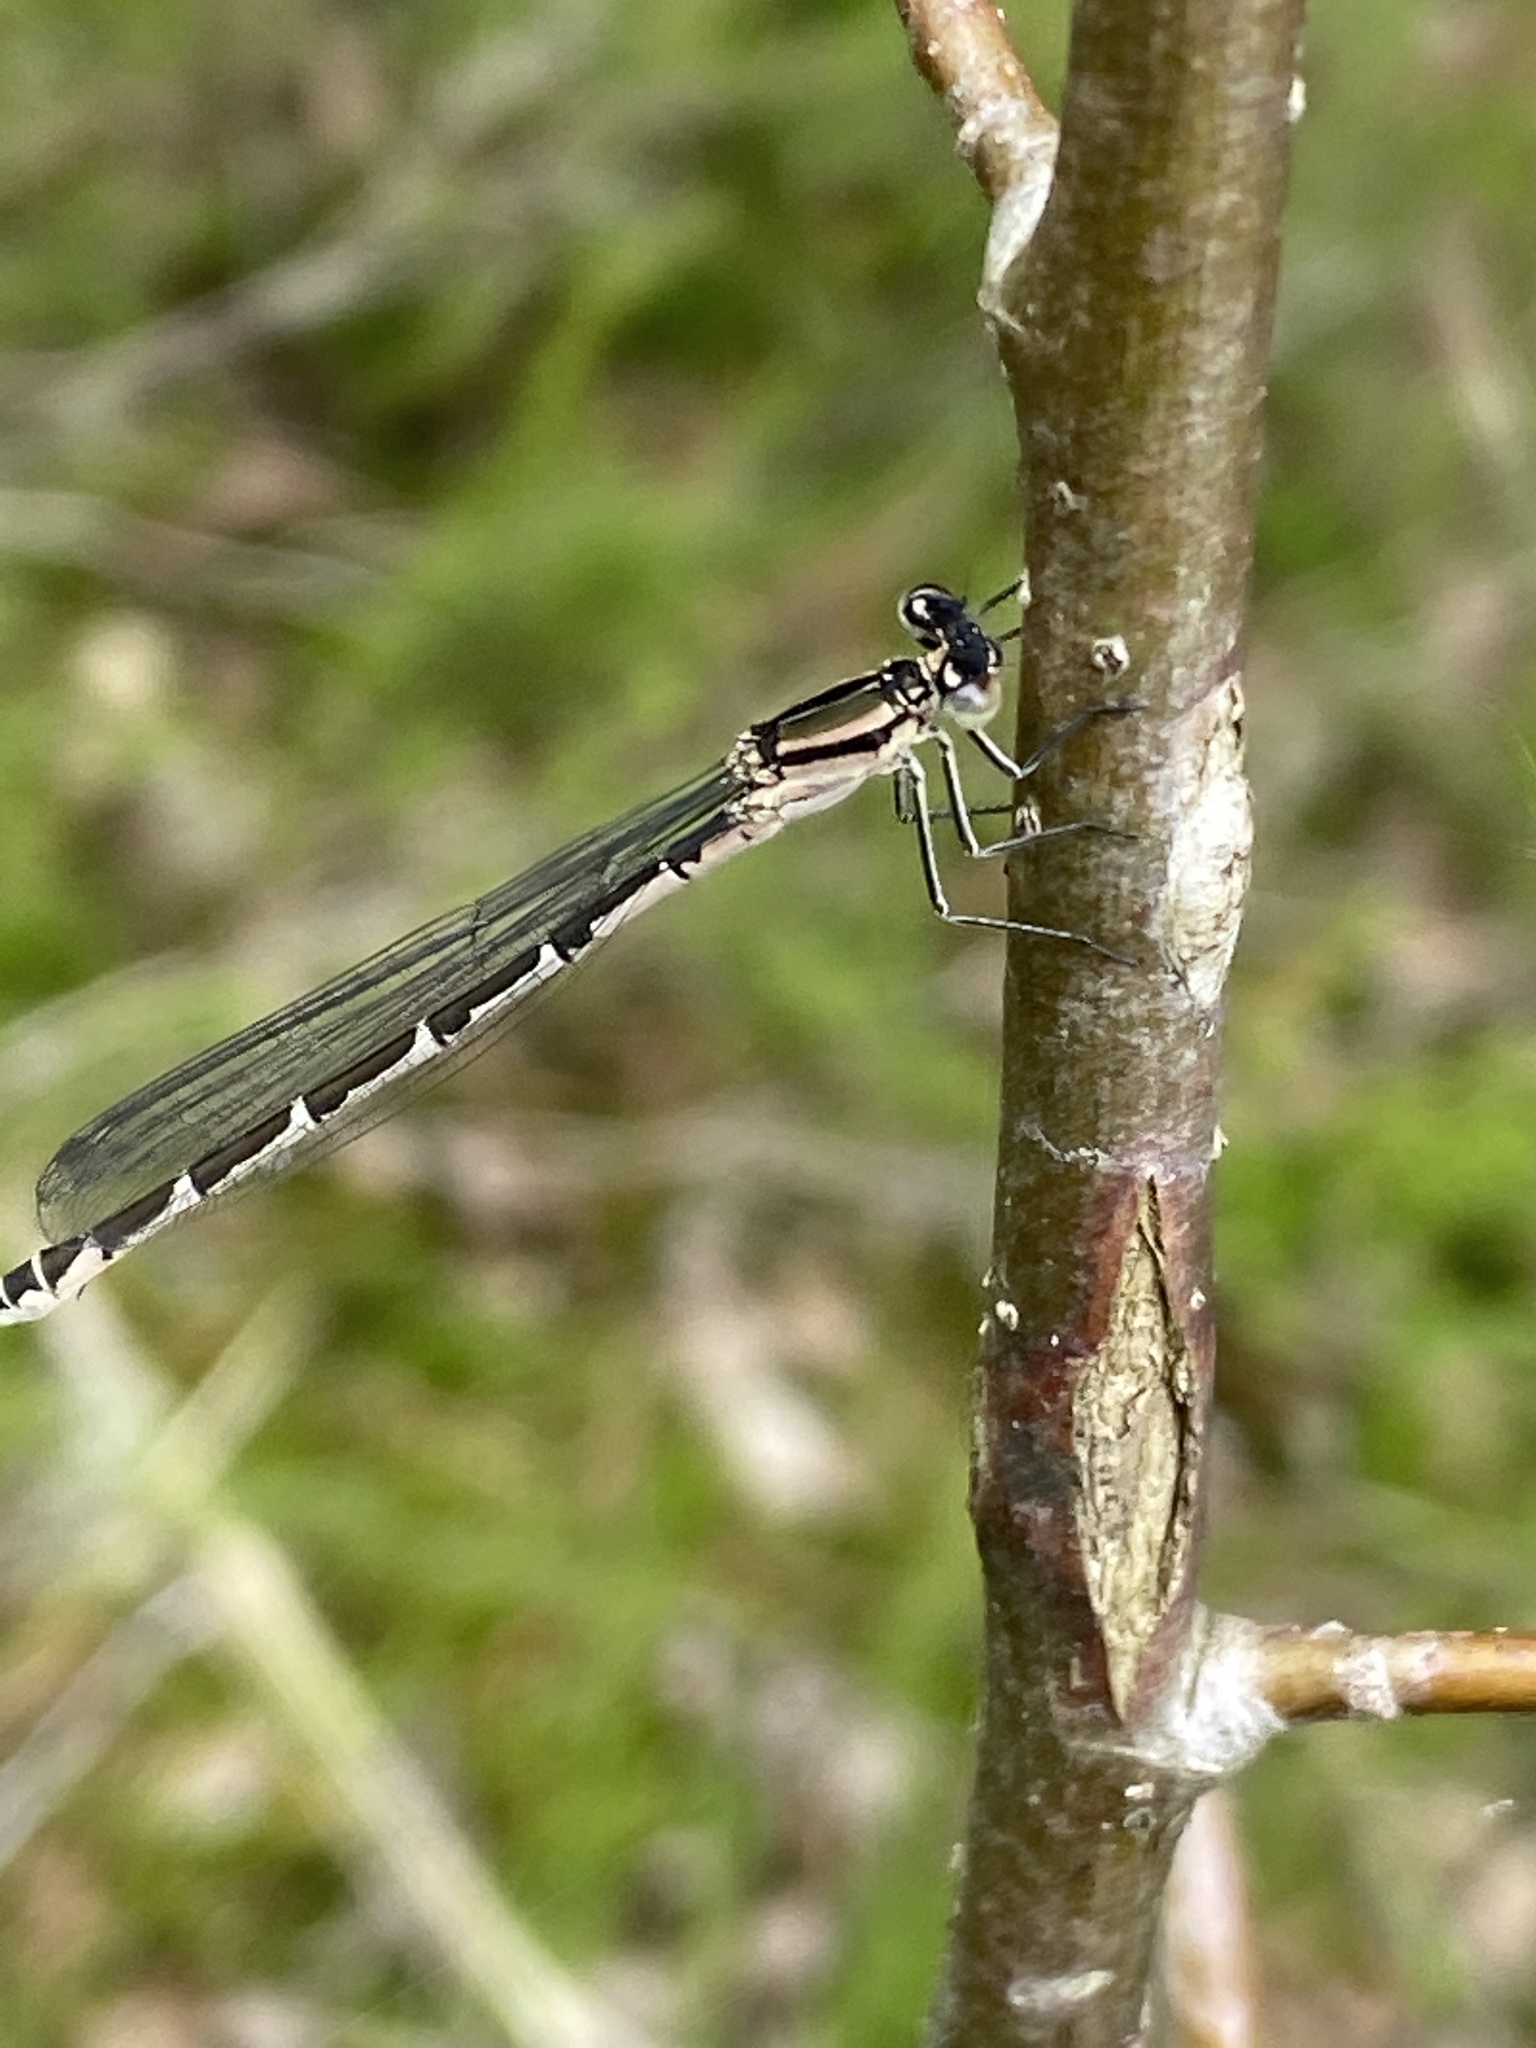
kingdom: Animalia
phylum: Arthropoda
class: Insecta
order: Odonata
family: Coenagrionidae
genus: Enallagma
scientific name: Enallagma cyathigerum
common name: Common blue damselfly
